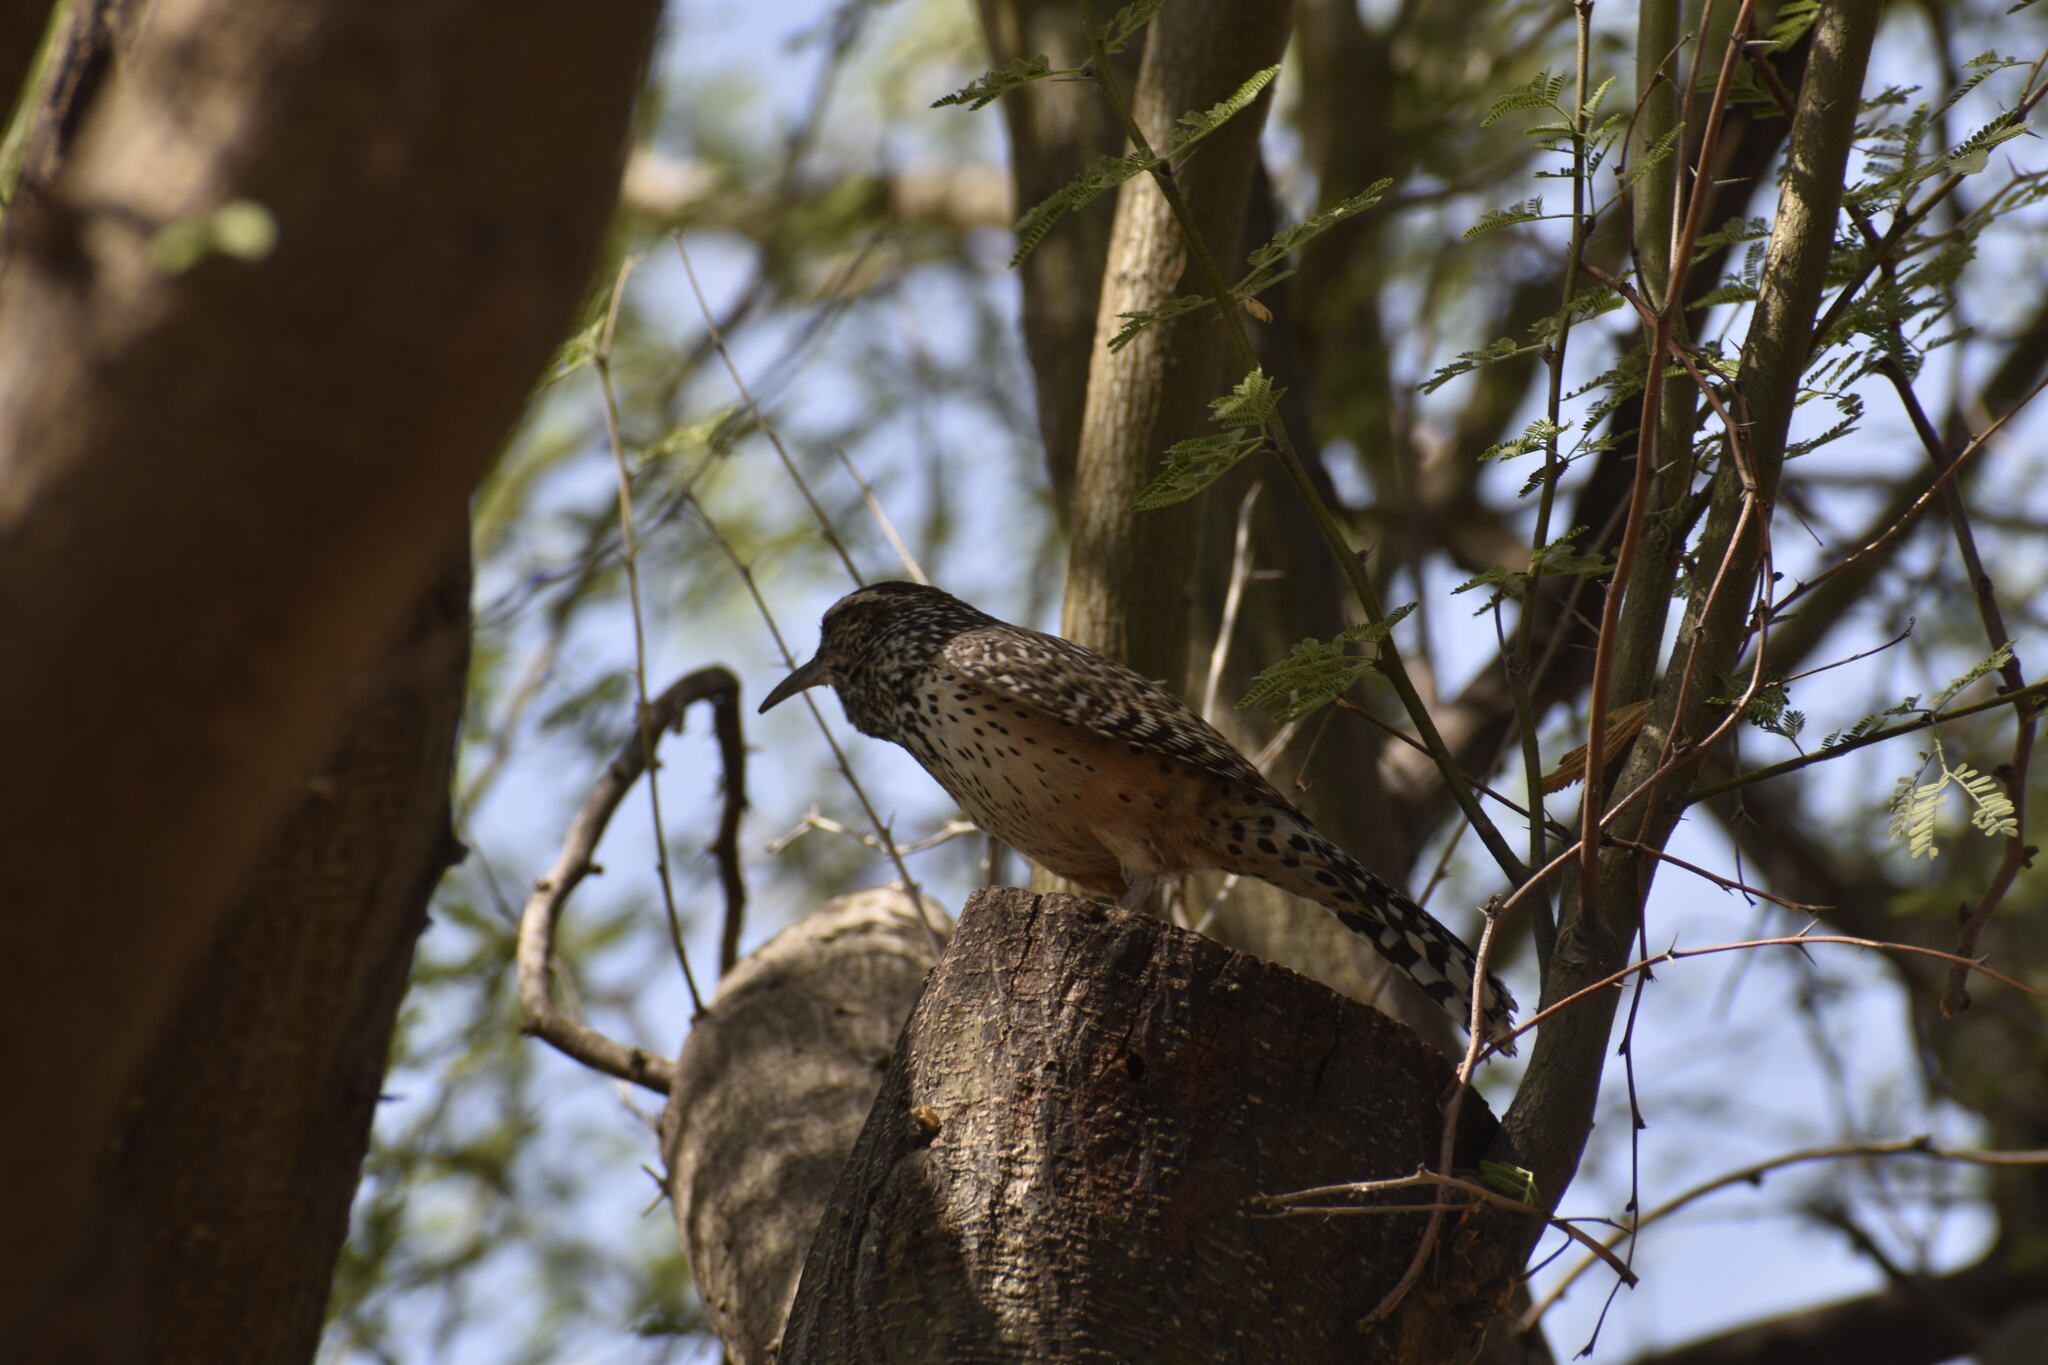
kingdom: Animalia
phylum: Chordata
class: Aves
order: Passeriformes
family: Troglodytidae
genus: Campylorhynchus
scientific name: Campylorhynchus brunneicapillus
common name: Cactus wren
